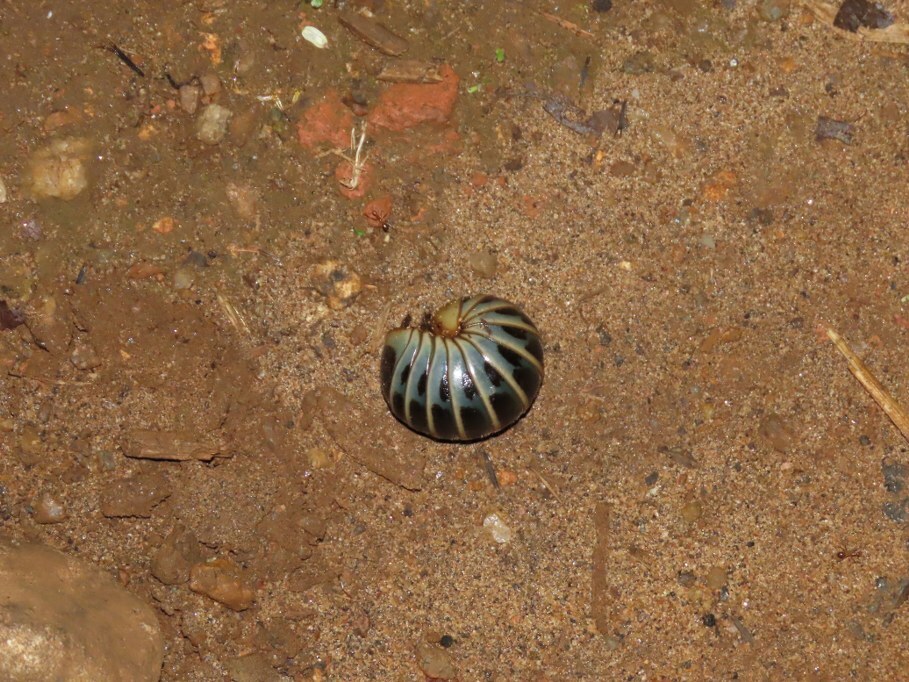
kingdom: Animalia
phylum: Arthropoda
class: Diplopoda
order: Sphaerotheriida
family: Arthrosphaeridae
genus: Arthrosphaera
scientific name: Arthrosphaera fumosa
